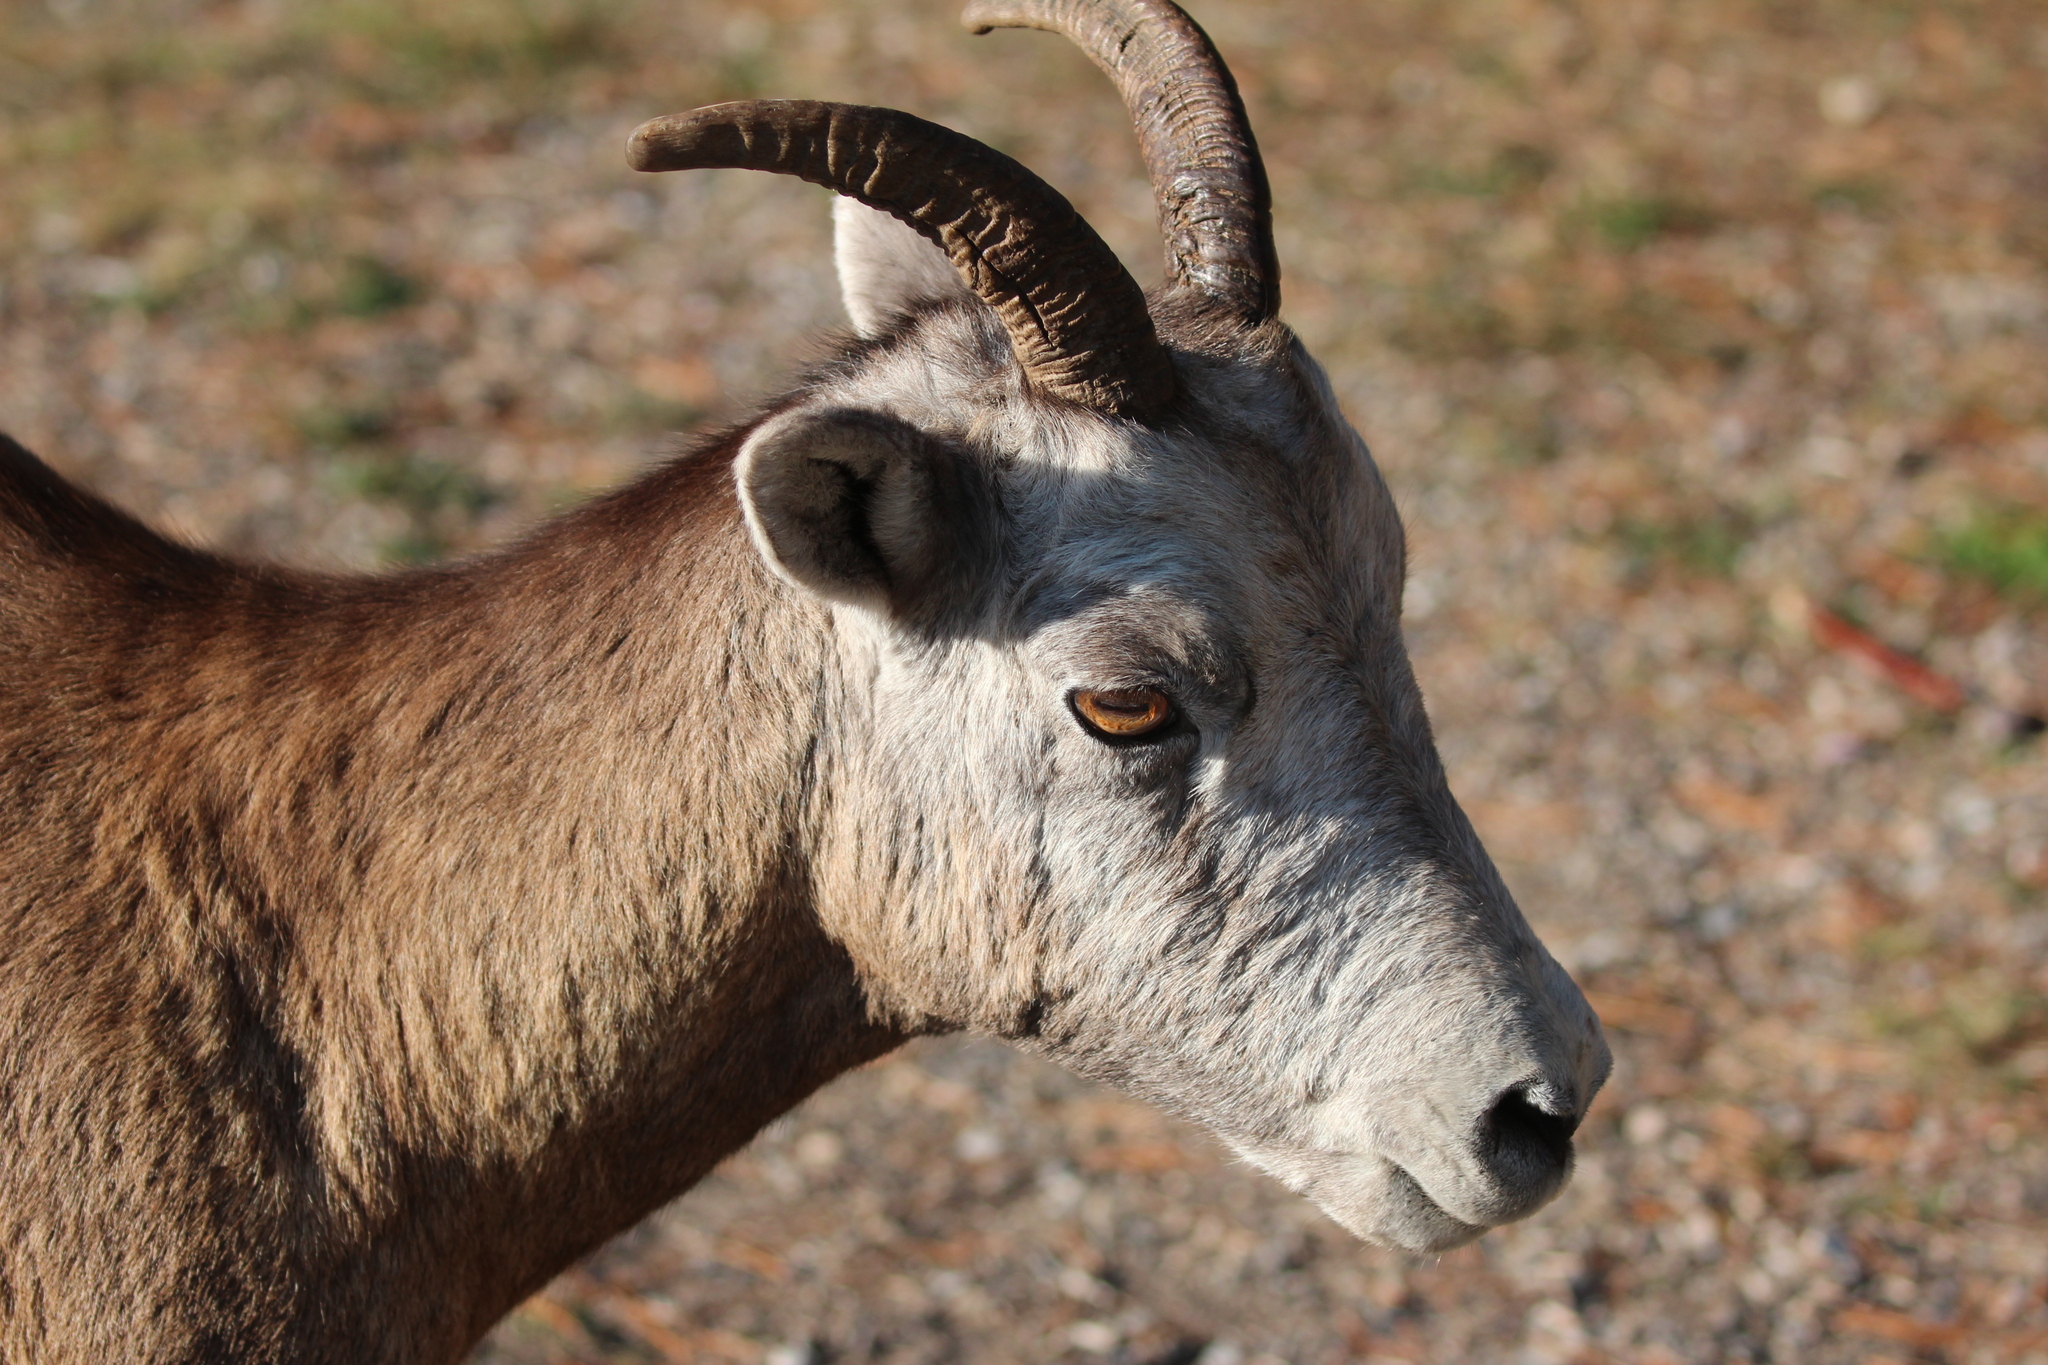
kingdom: Animalia
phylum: Chordata
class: Mammalia
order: Artiodactyla
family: Bovidae
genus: Ovis
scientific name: Ovis canadensis
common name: Bighorn sheep
